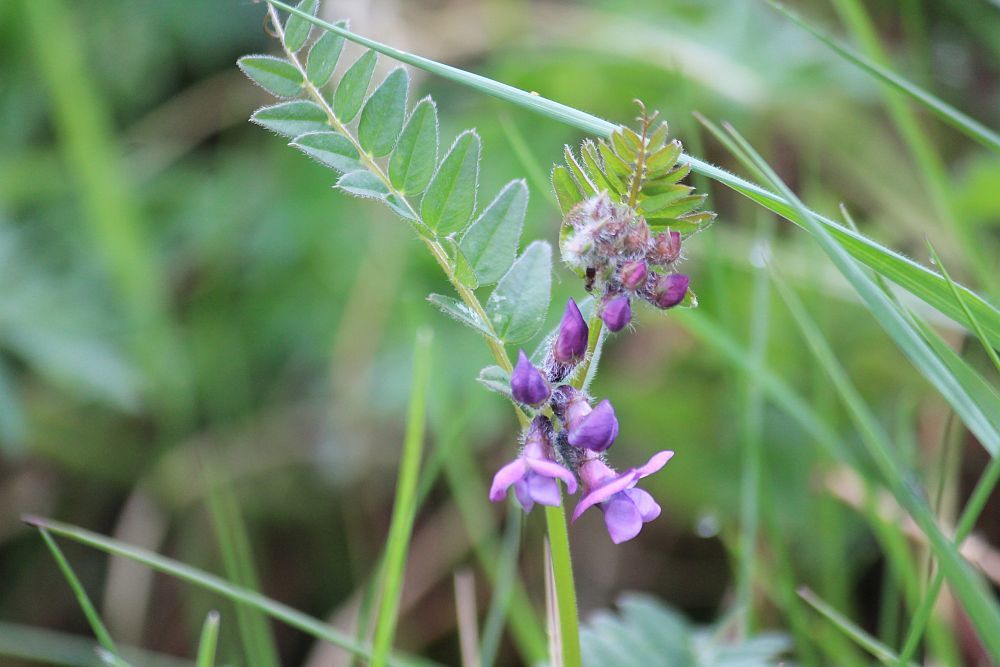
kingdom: Plantae
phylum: Tracheophyta
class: Magnoliopsida
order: Fabales
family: Fabaceae
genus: Vicia
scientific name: Vicia sepium
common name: Bush vetch
